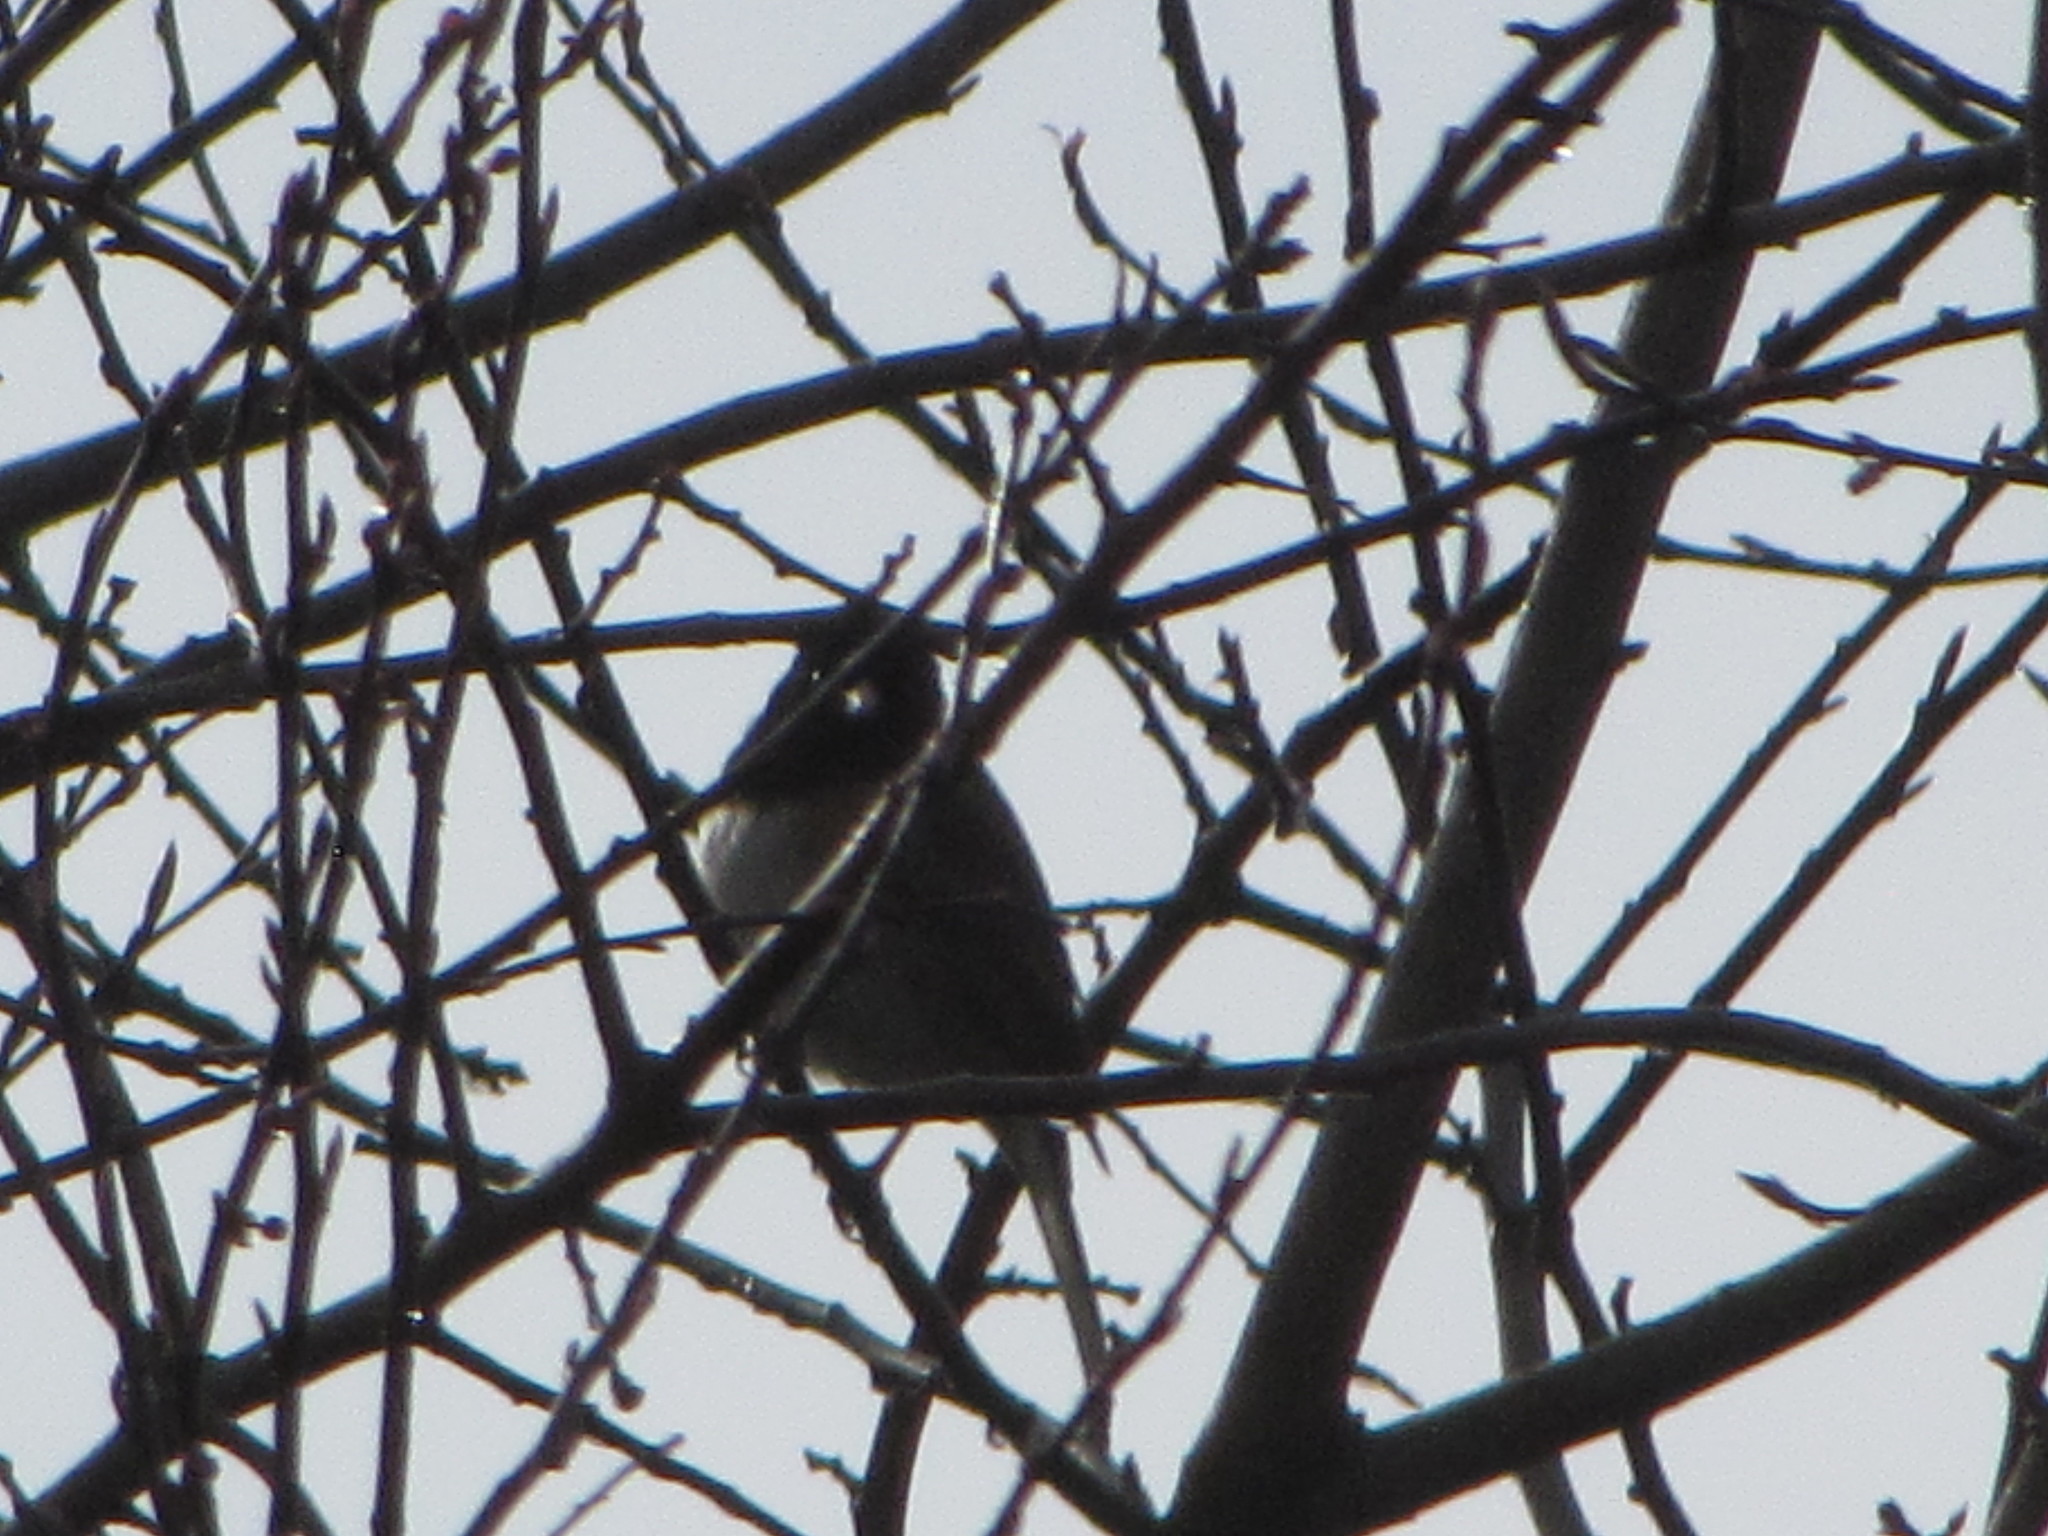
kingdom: Animalia
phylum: Chordata
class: Aves
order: Passeriformes
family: Passerellidae
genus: Junco
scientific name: Junco hyemalis
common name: Dark-eyed junco
